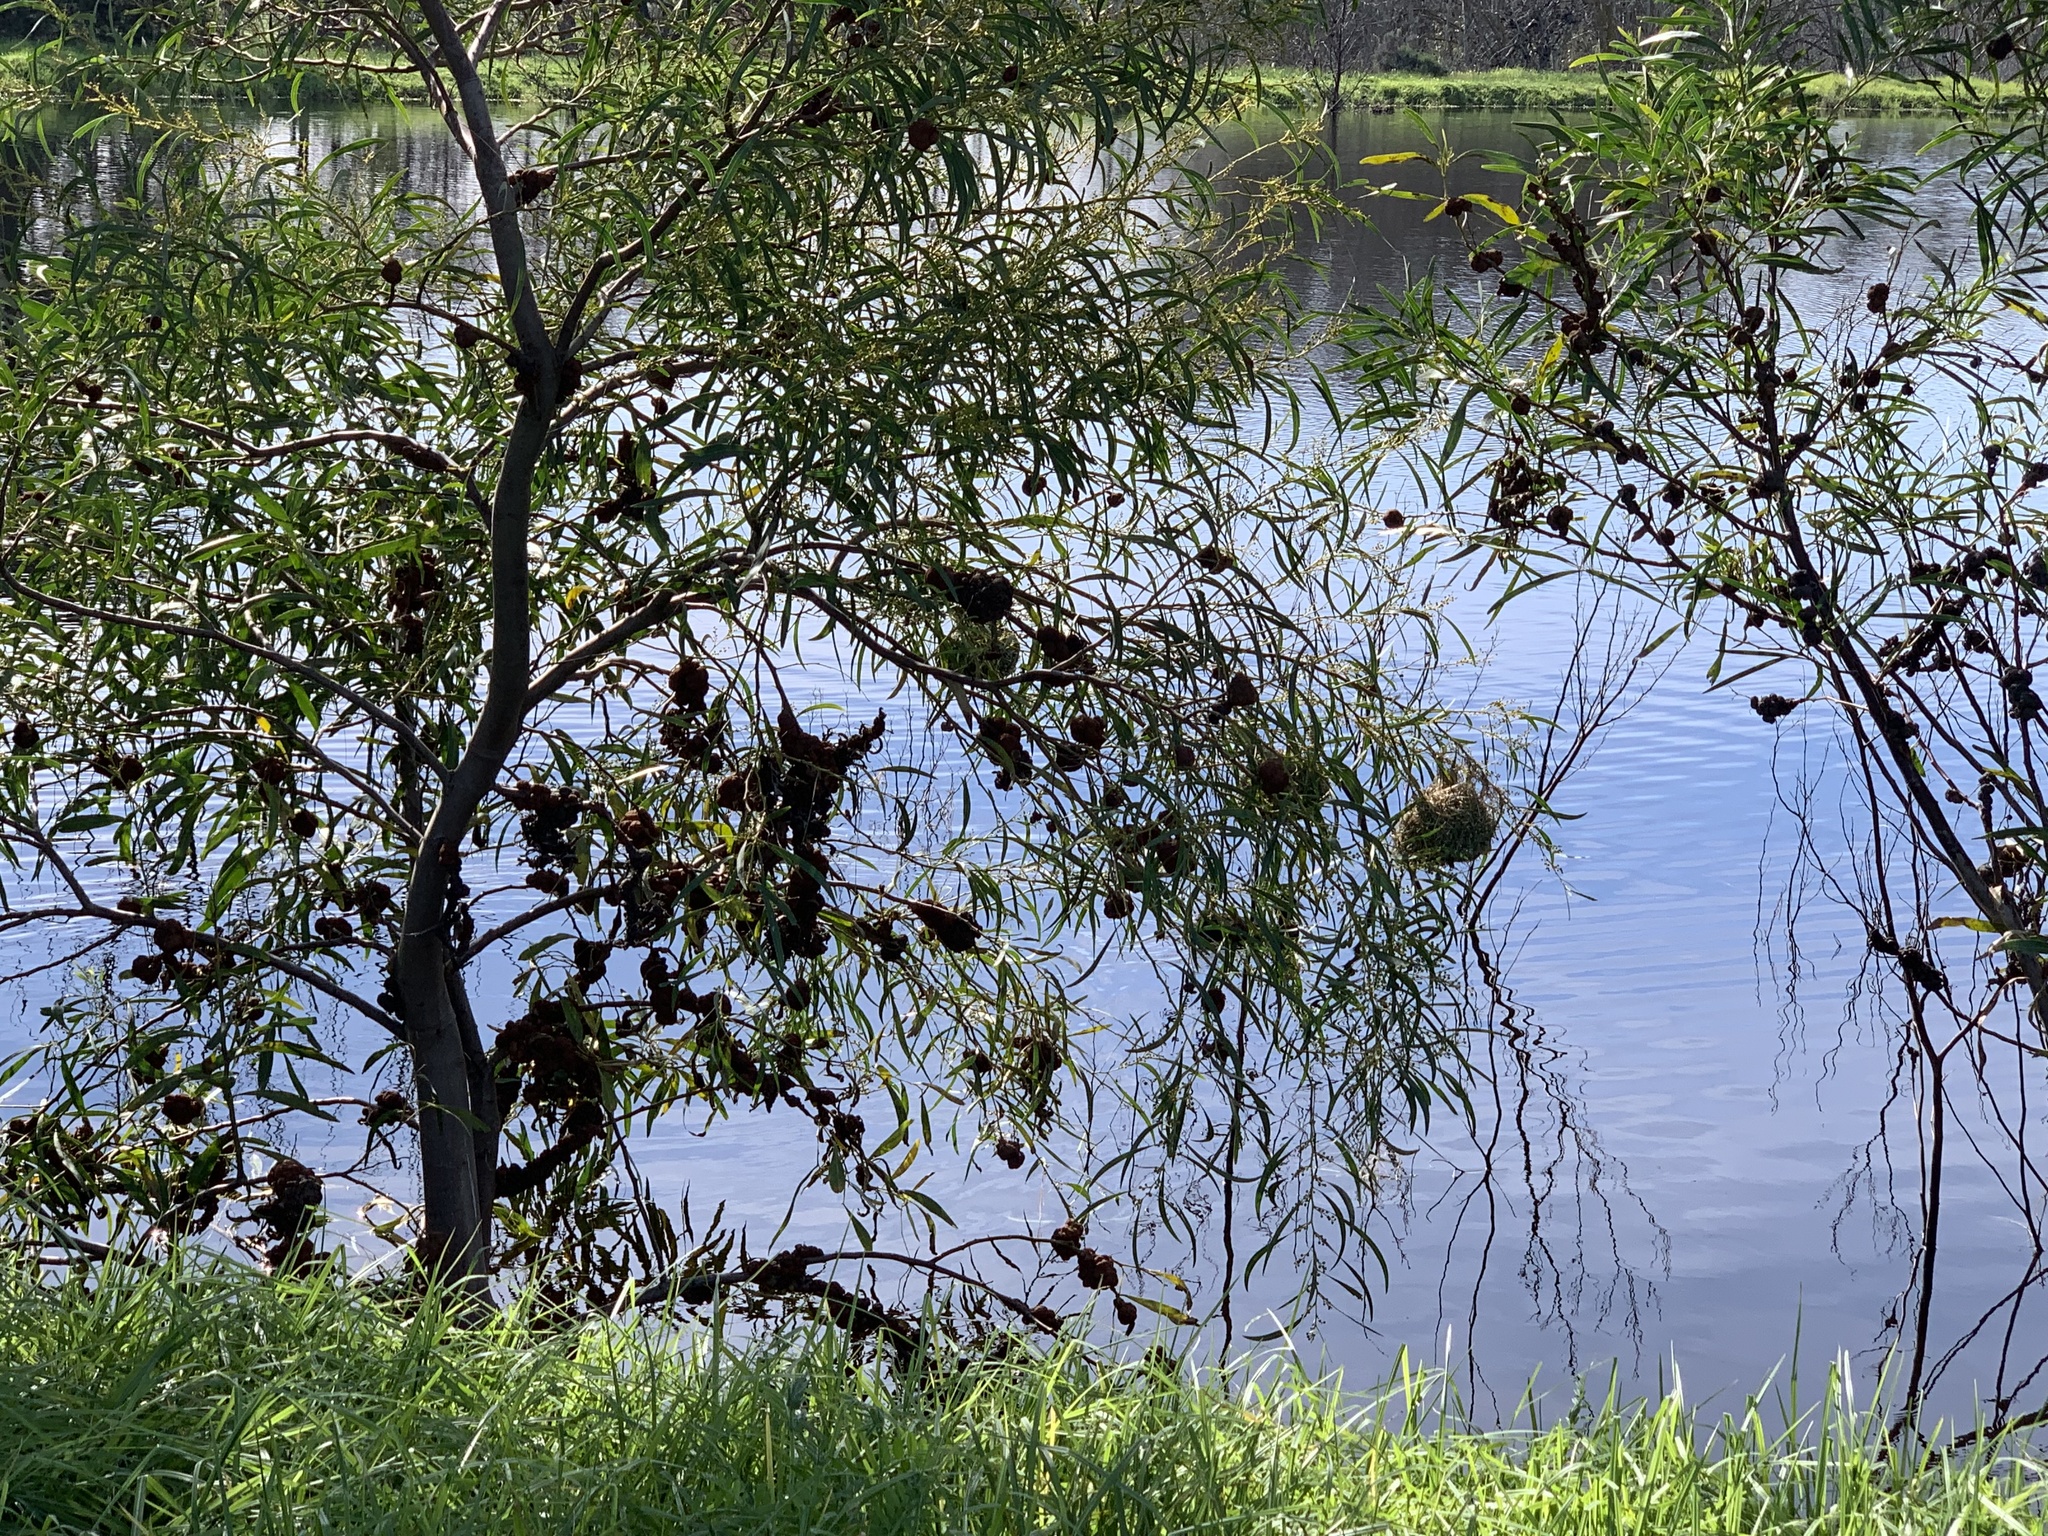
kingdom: Plantae
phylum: Tracheophyta
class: Magnoliopsida
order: Fabales
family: Fabaceae
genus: Acacia
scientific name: Acacia saligna
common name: Orange wattle
